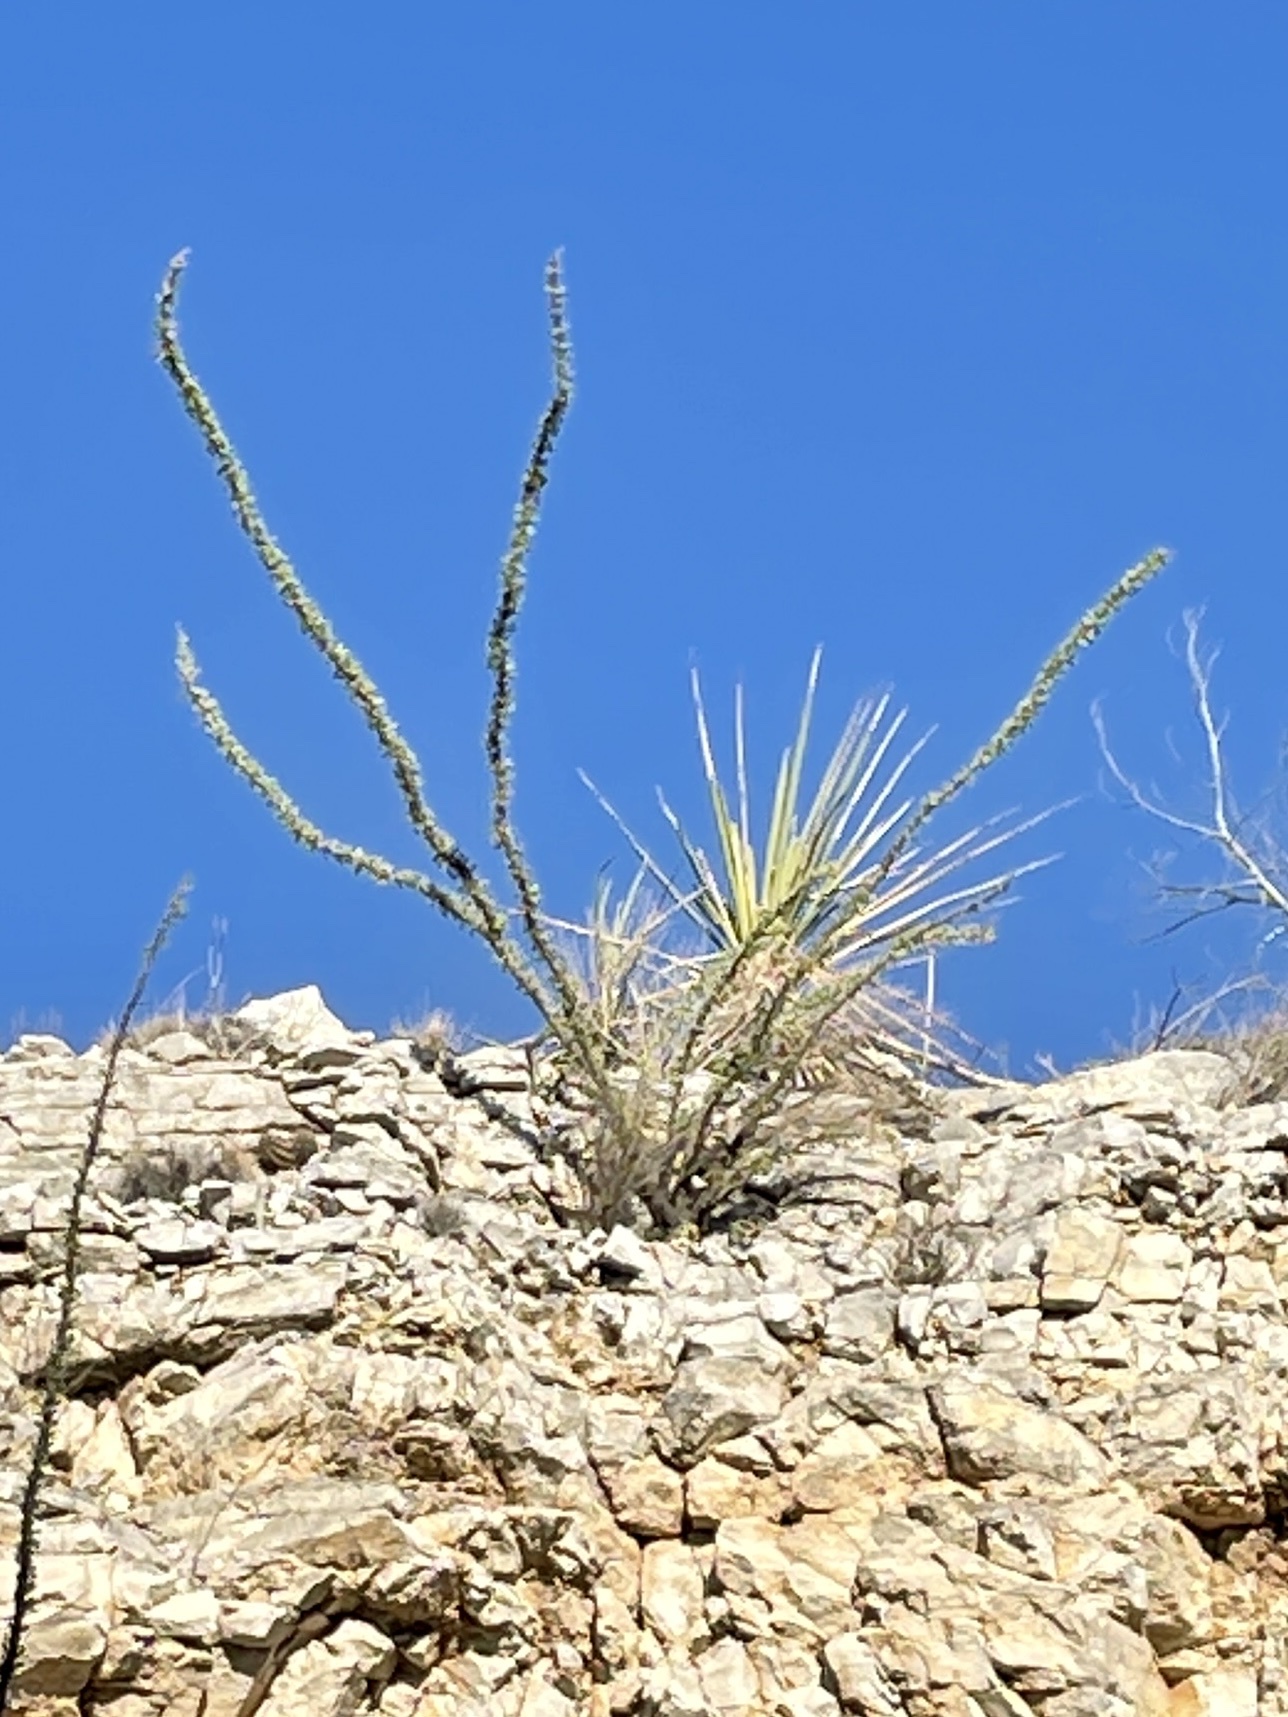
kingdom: Plantae
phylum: Tracheophyta
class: Magnoliopsida
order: Ericales
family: Fouquieriaceae
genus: Fouquieria
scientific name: Fouquieria splendens
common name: Vine-cactus
